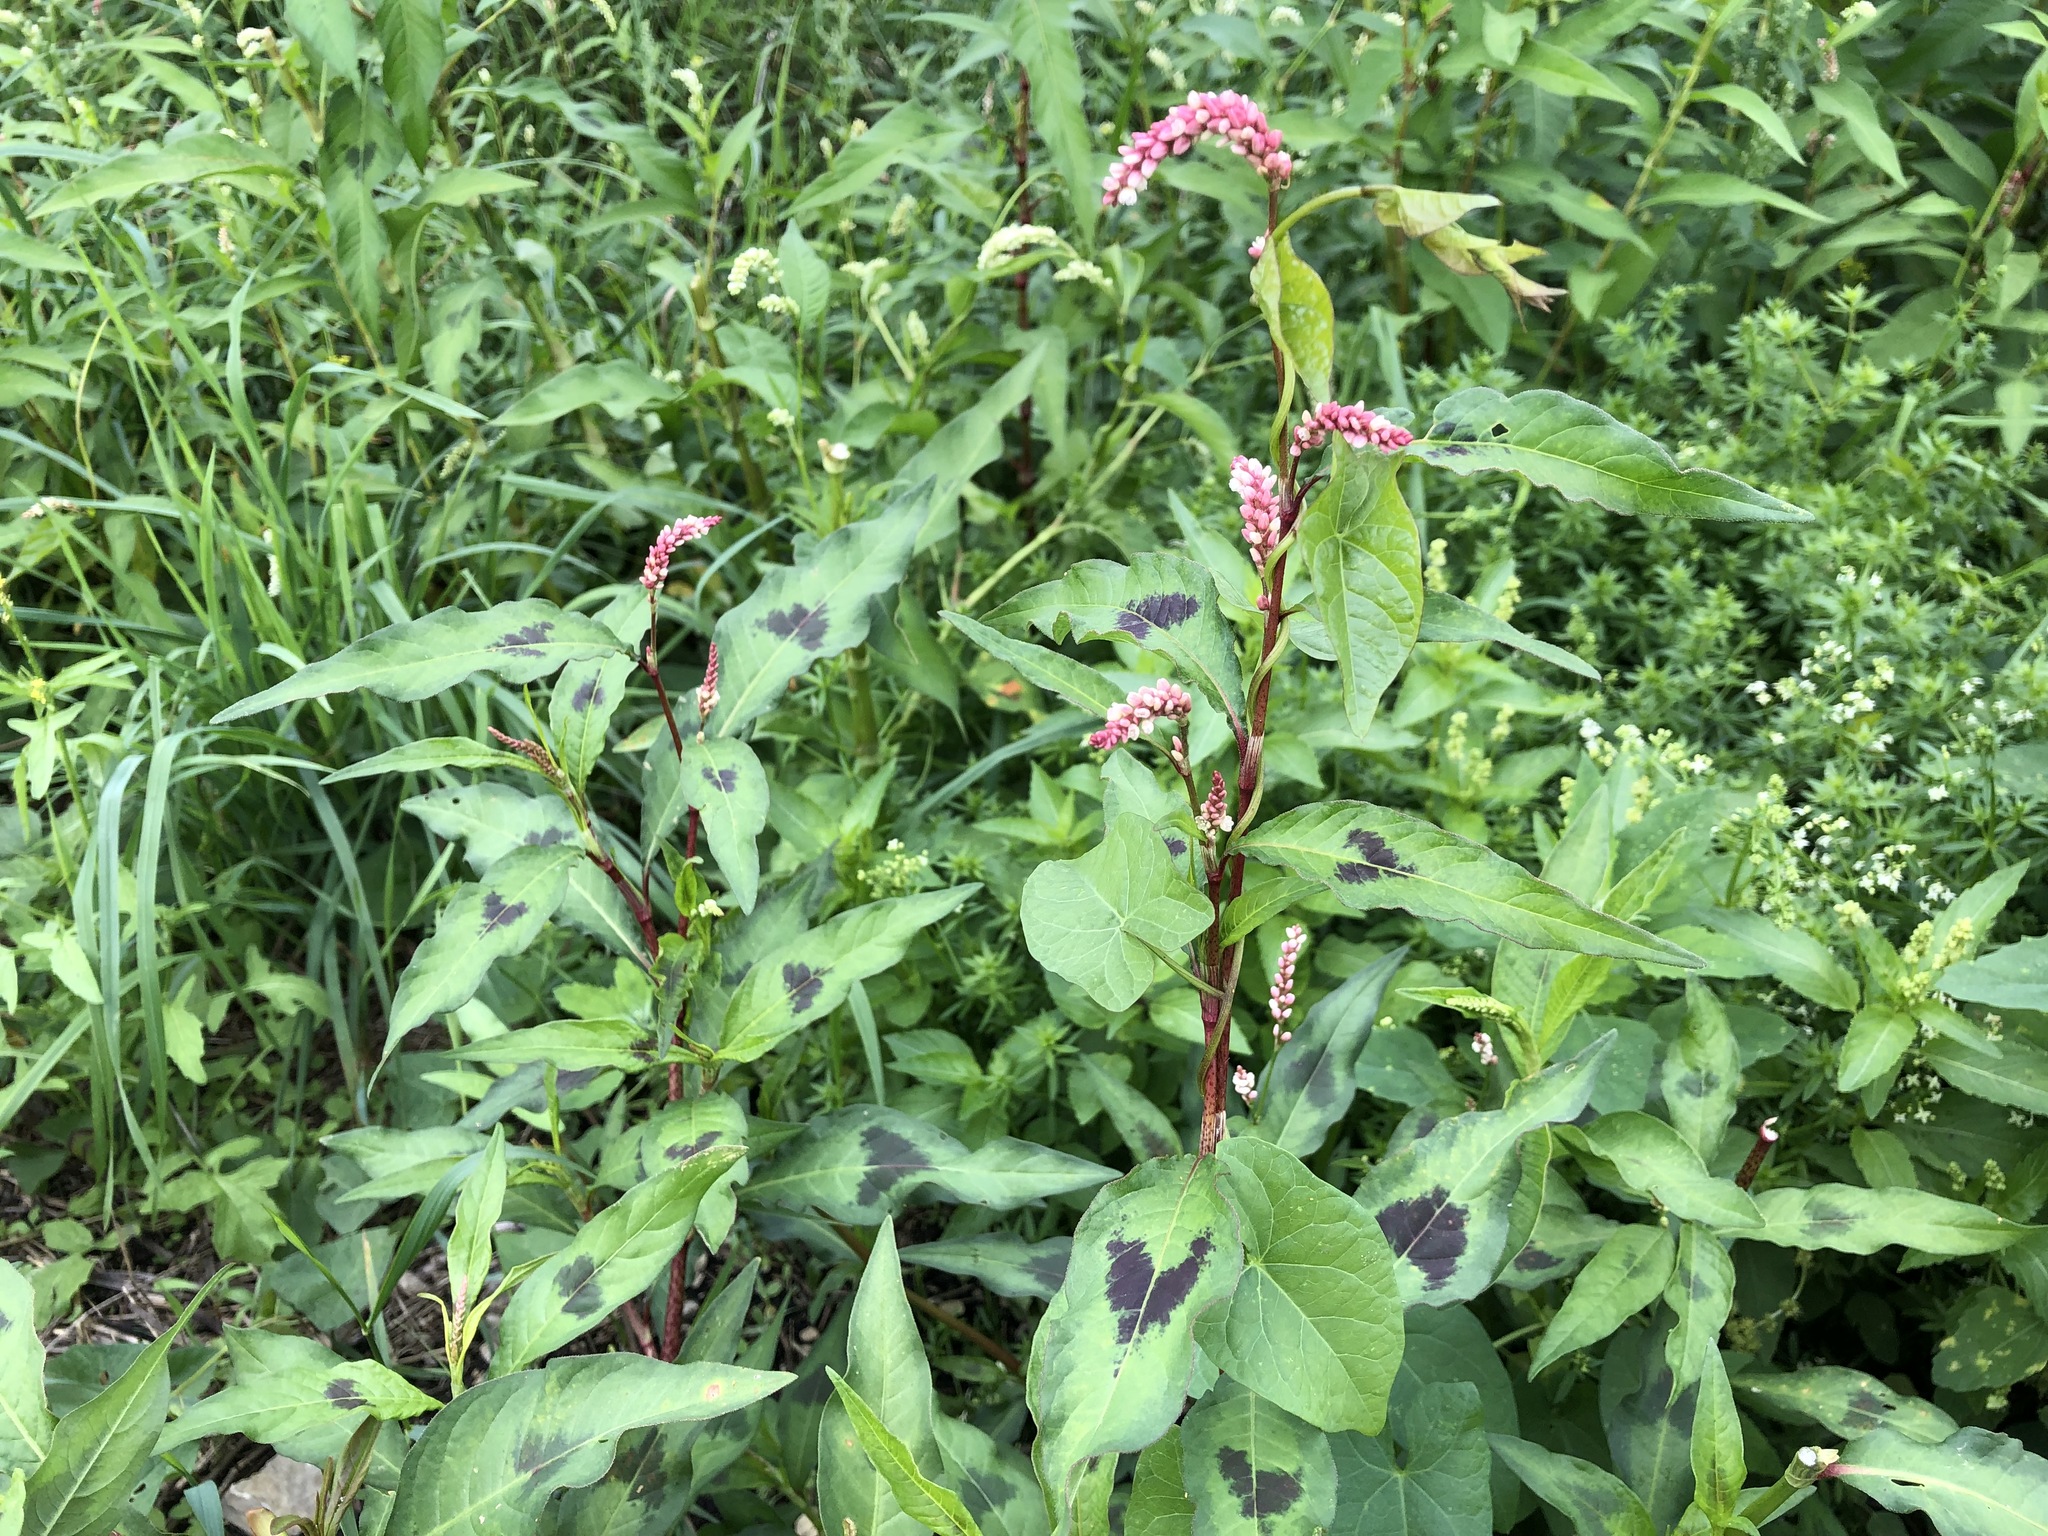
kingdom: Plantae
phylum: Tracheophyta
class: Magnoliopsida
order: Caryophyllales
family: Polygonaceae
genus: Persicaria
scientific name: Persicaria maculosa
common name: Redshank
